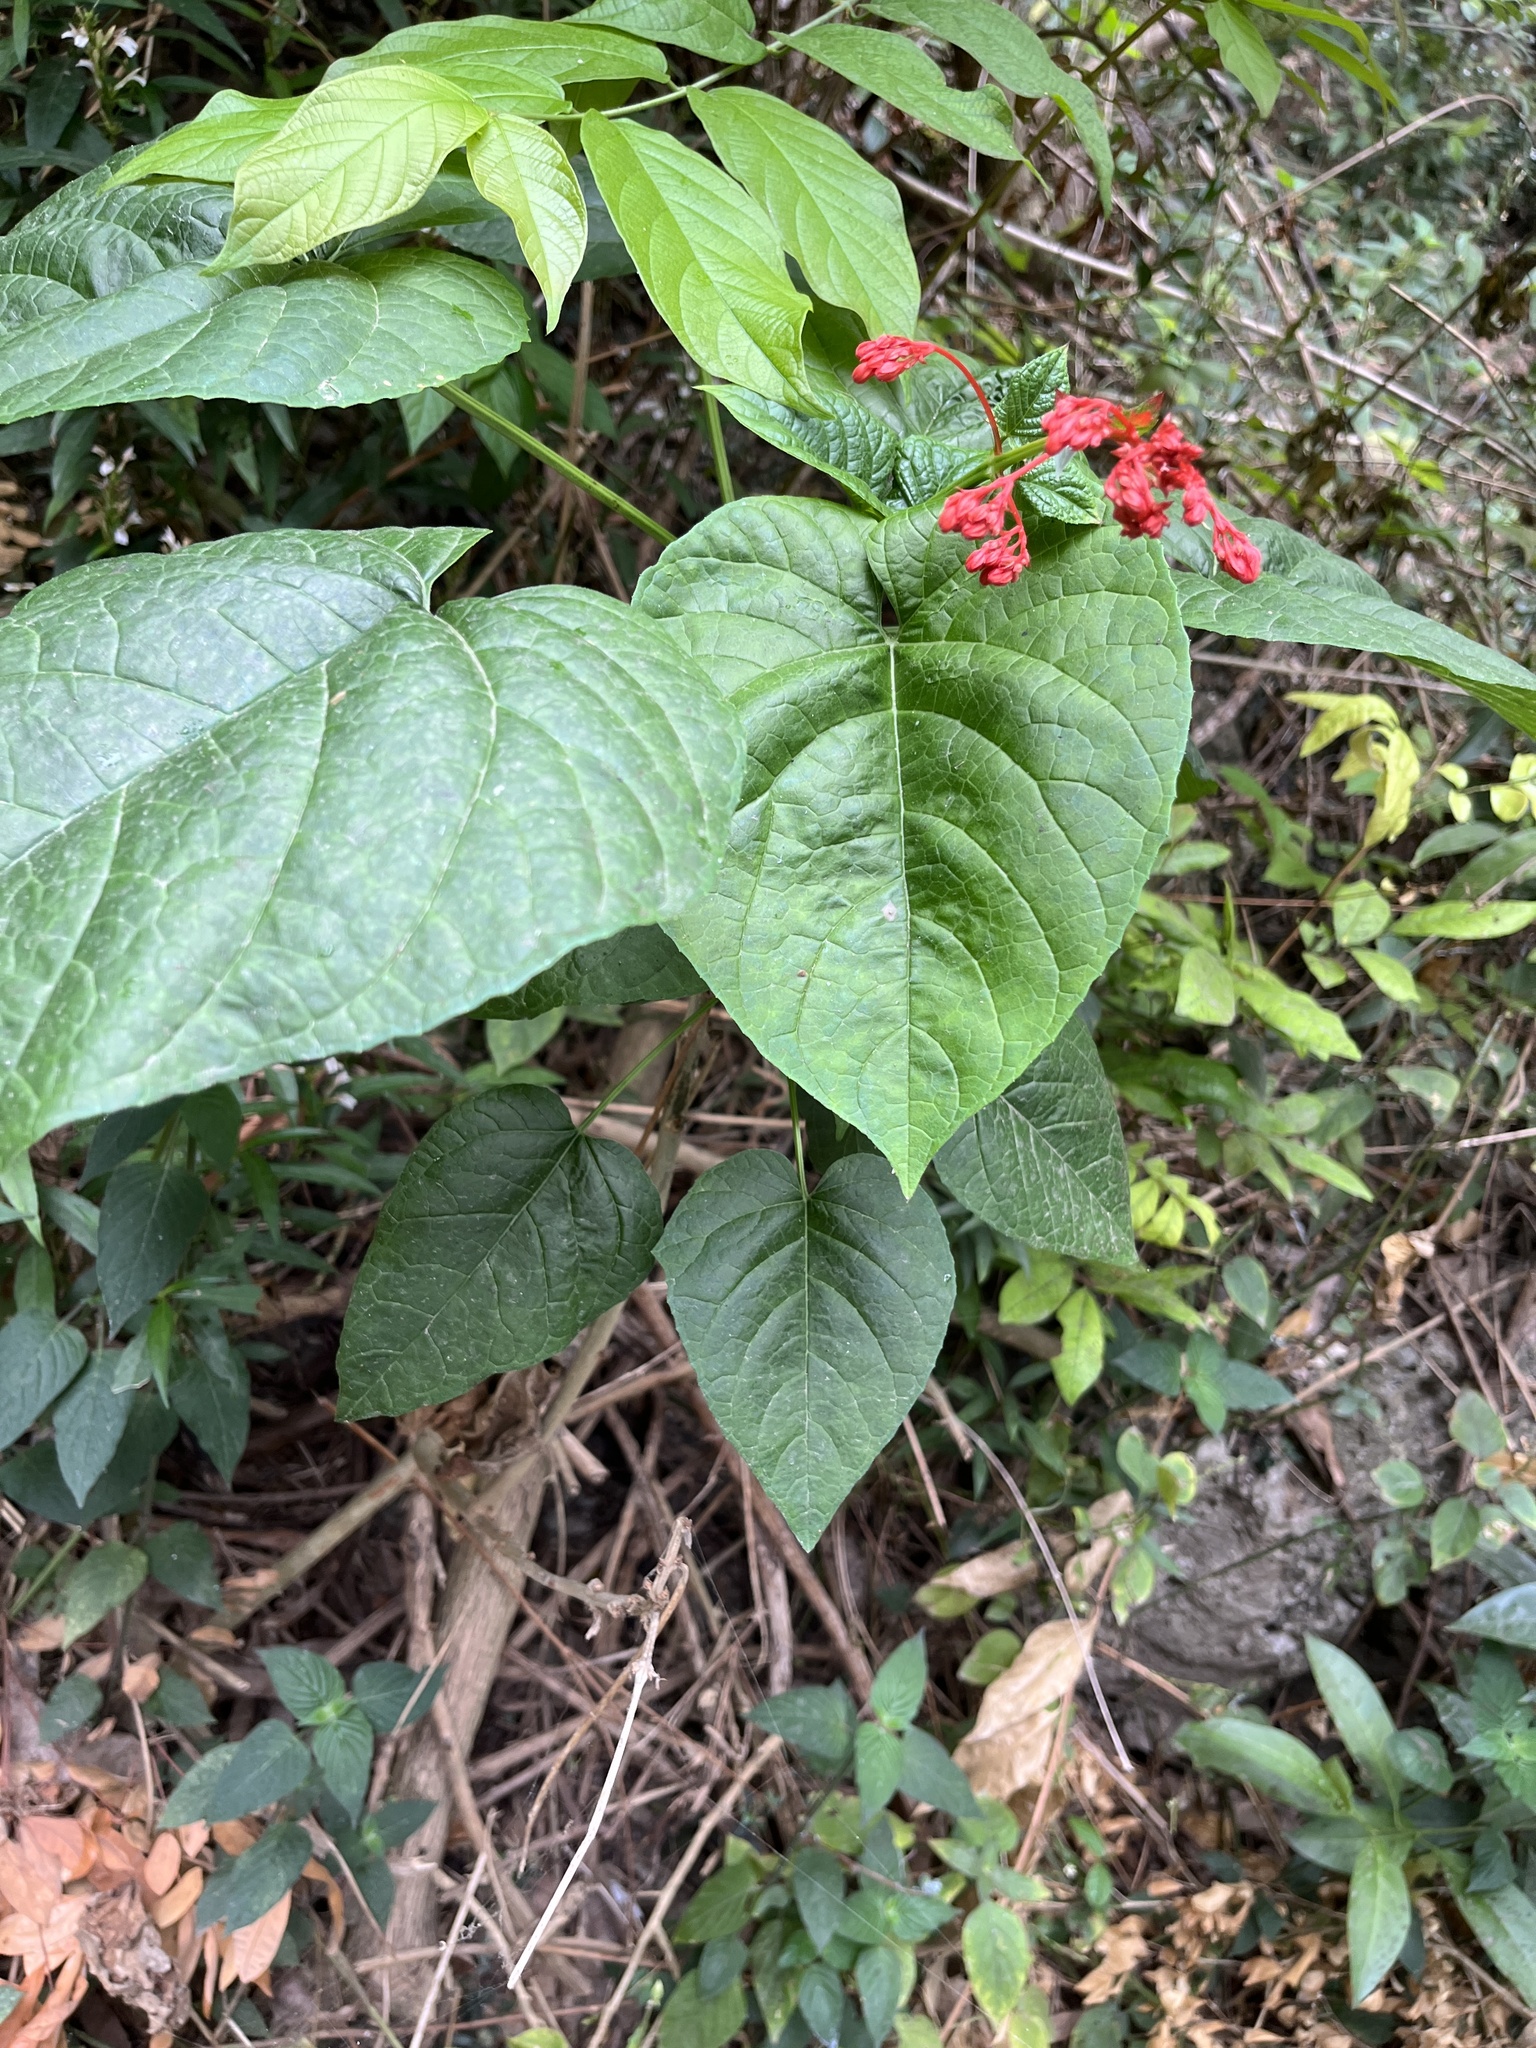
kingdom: Plantae
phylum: Tracheophyta
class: Magnoliopsida
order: Lamiales
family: Lamiaceae
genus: Clerodendrum
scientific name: Clerodendrum japonicum
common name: Japanese glorybower
